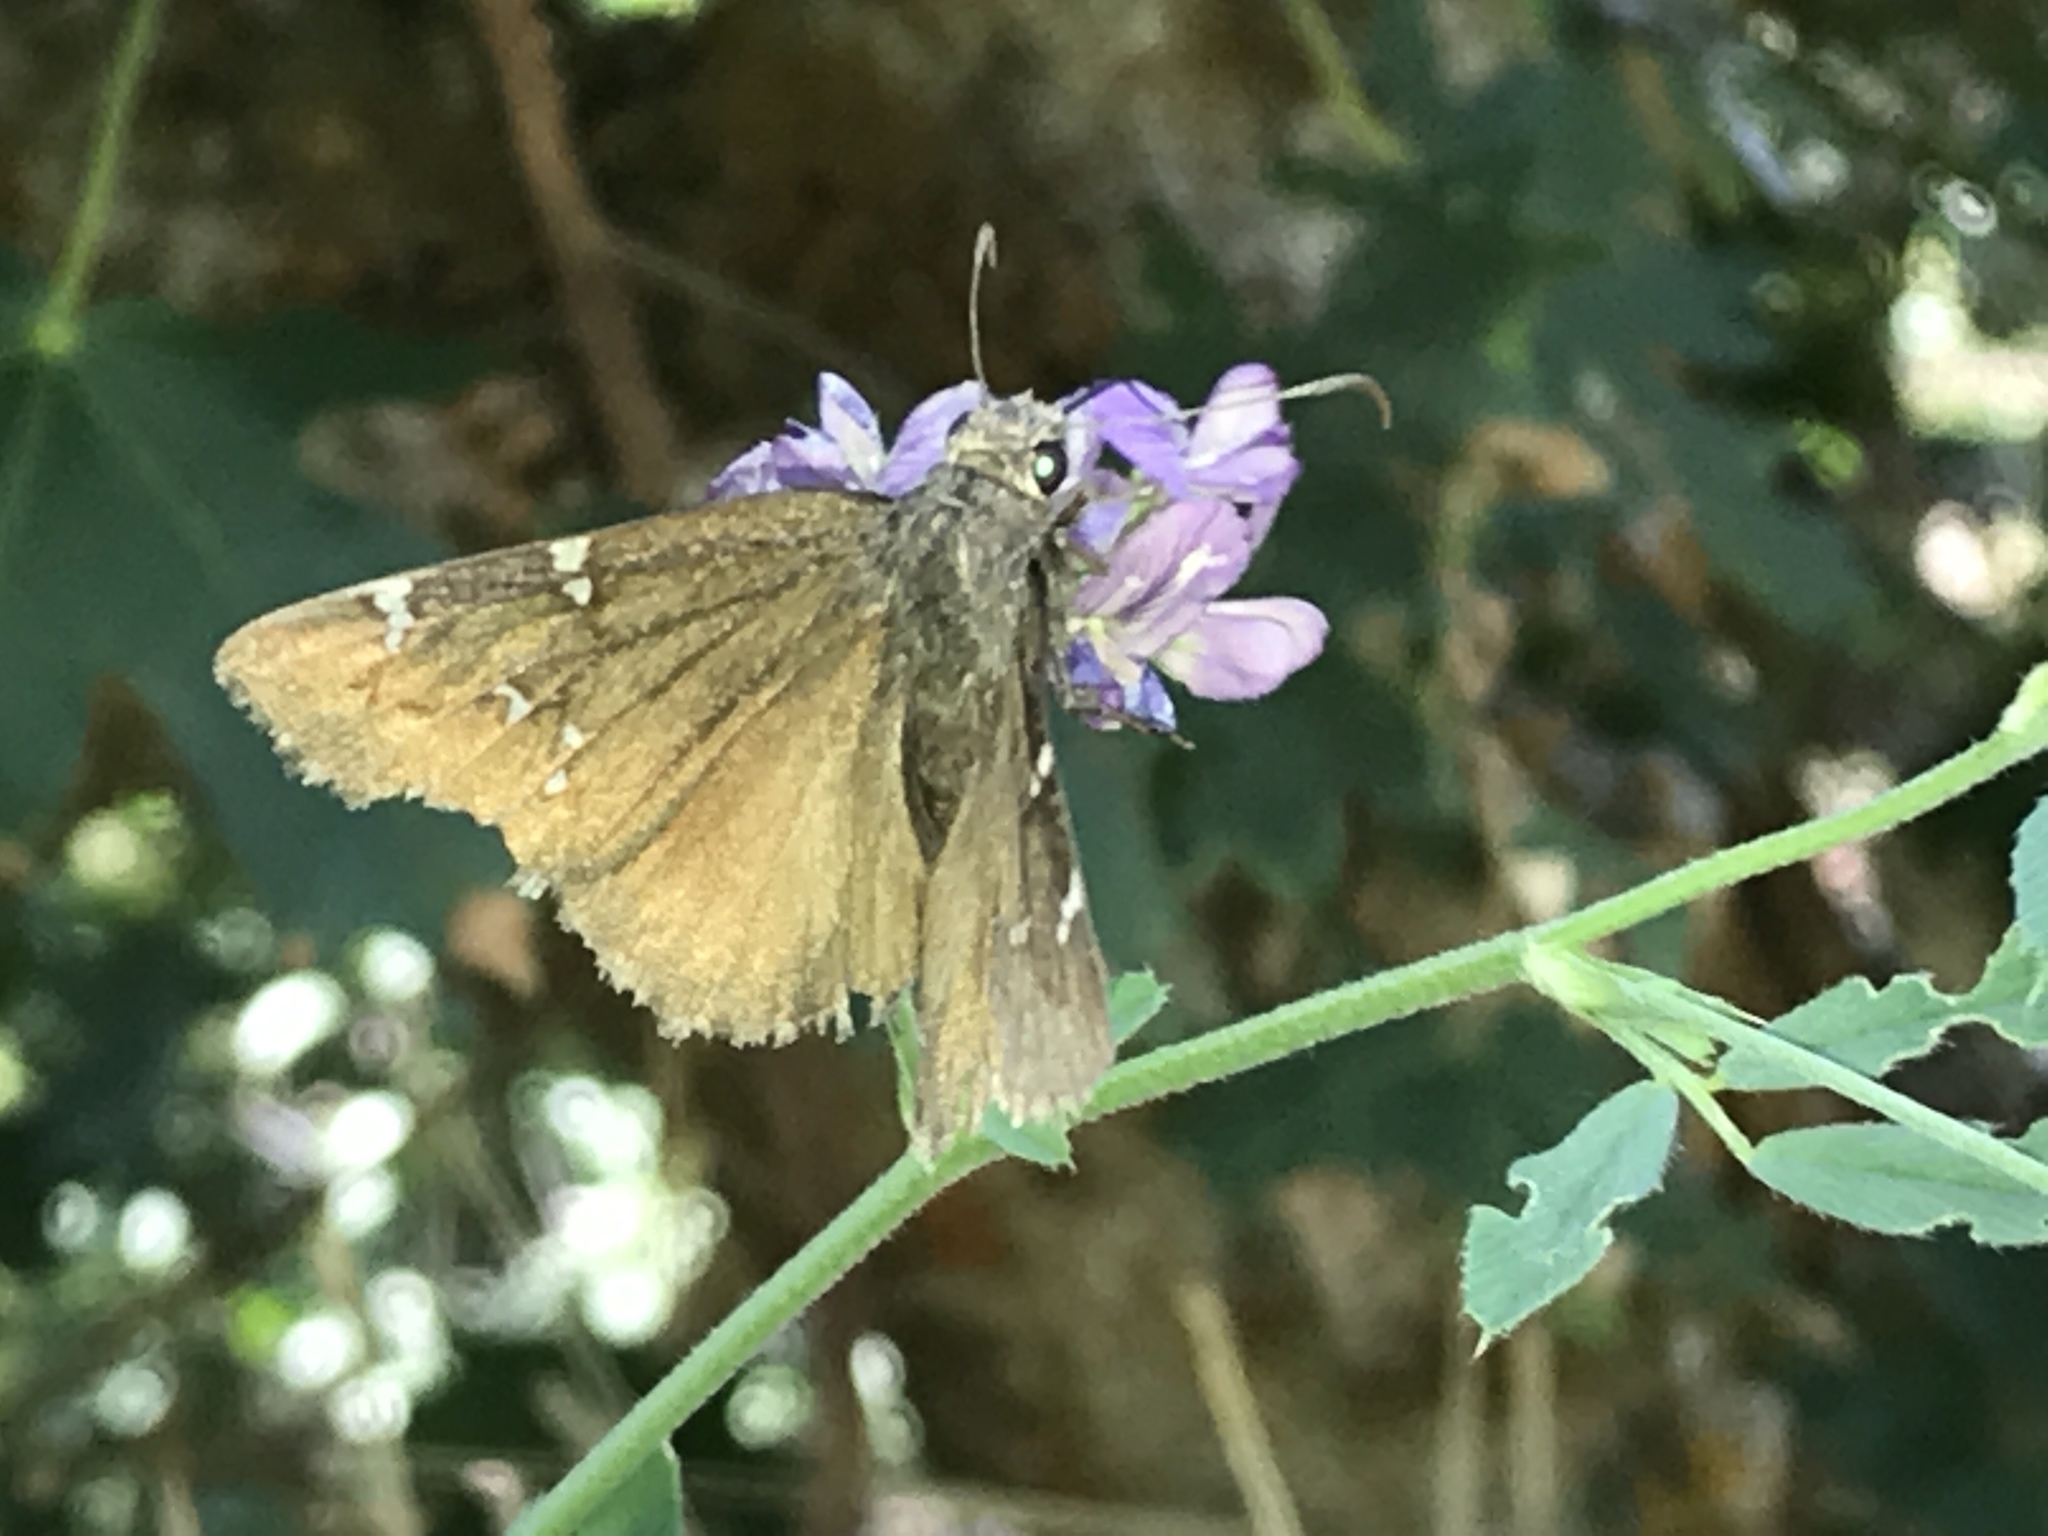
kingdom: Animalia
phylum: Arthropoda
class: Insecta
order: Lepidoptera
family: Hesperiidae
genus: Thorybes
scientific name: Thorybes pylades
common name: Northern cloudywing
